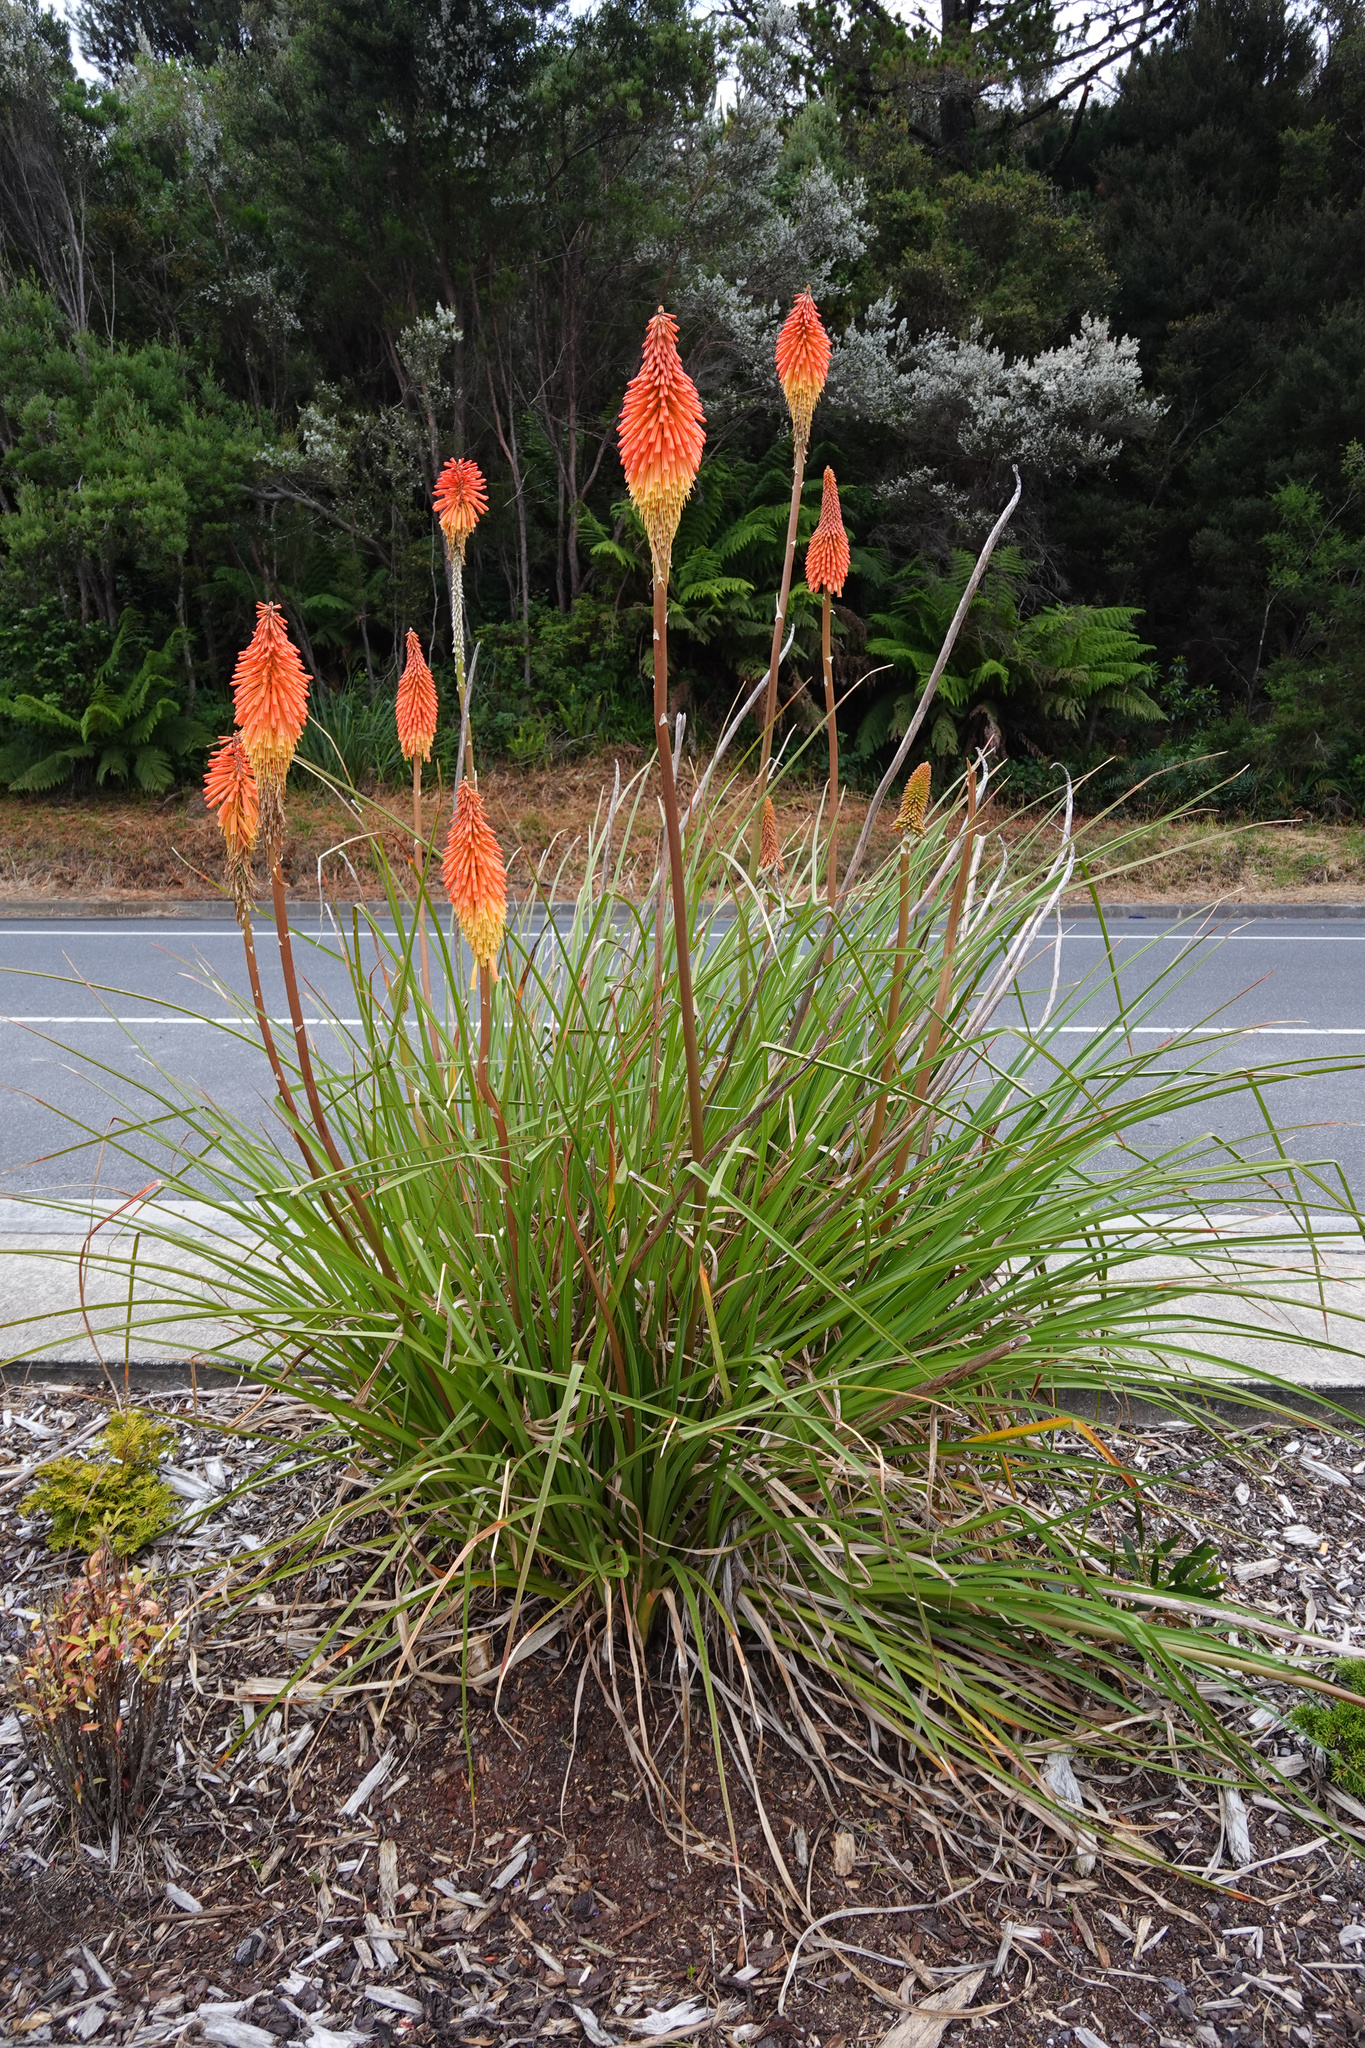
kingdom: Plantae
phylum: Tracheophyta
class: Liliopsida
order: Asparagales
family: Asphodelaceae
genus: Kniphofia
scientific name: Kniphofia uvaria
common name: Red-hot-poker
